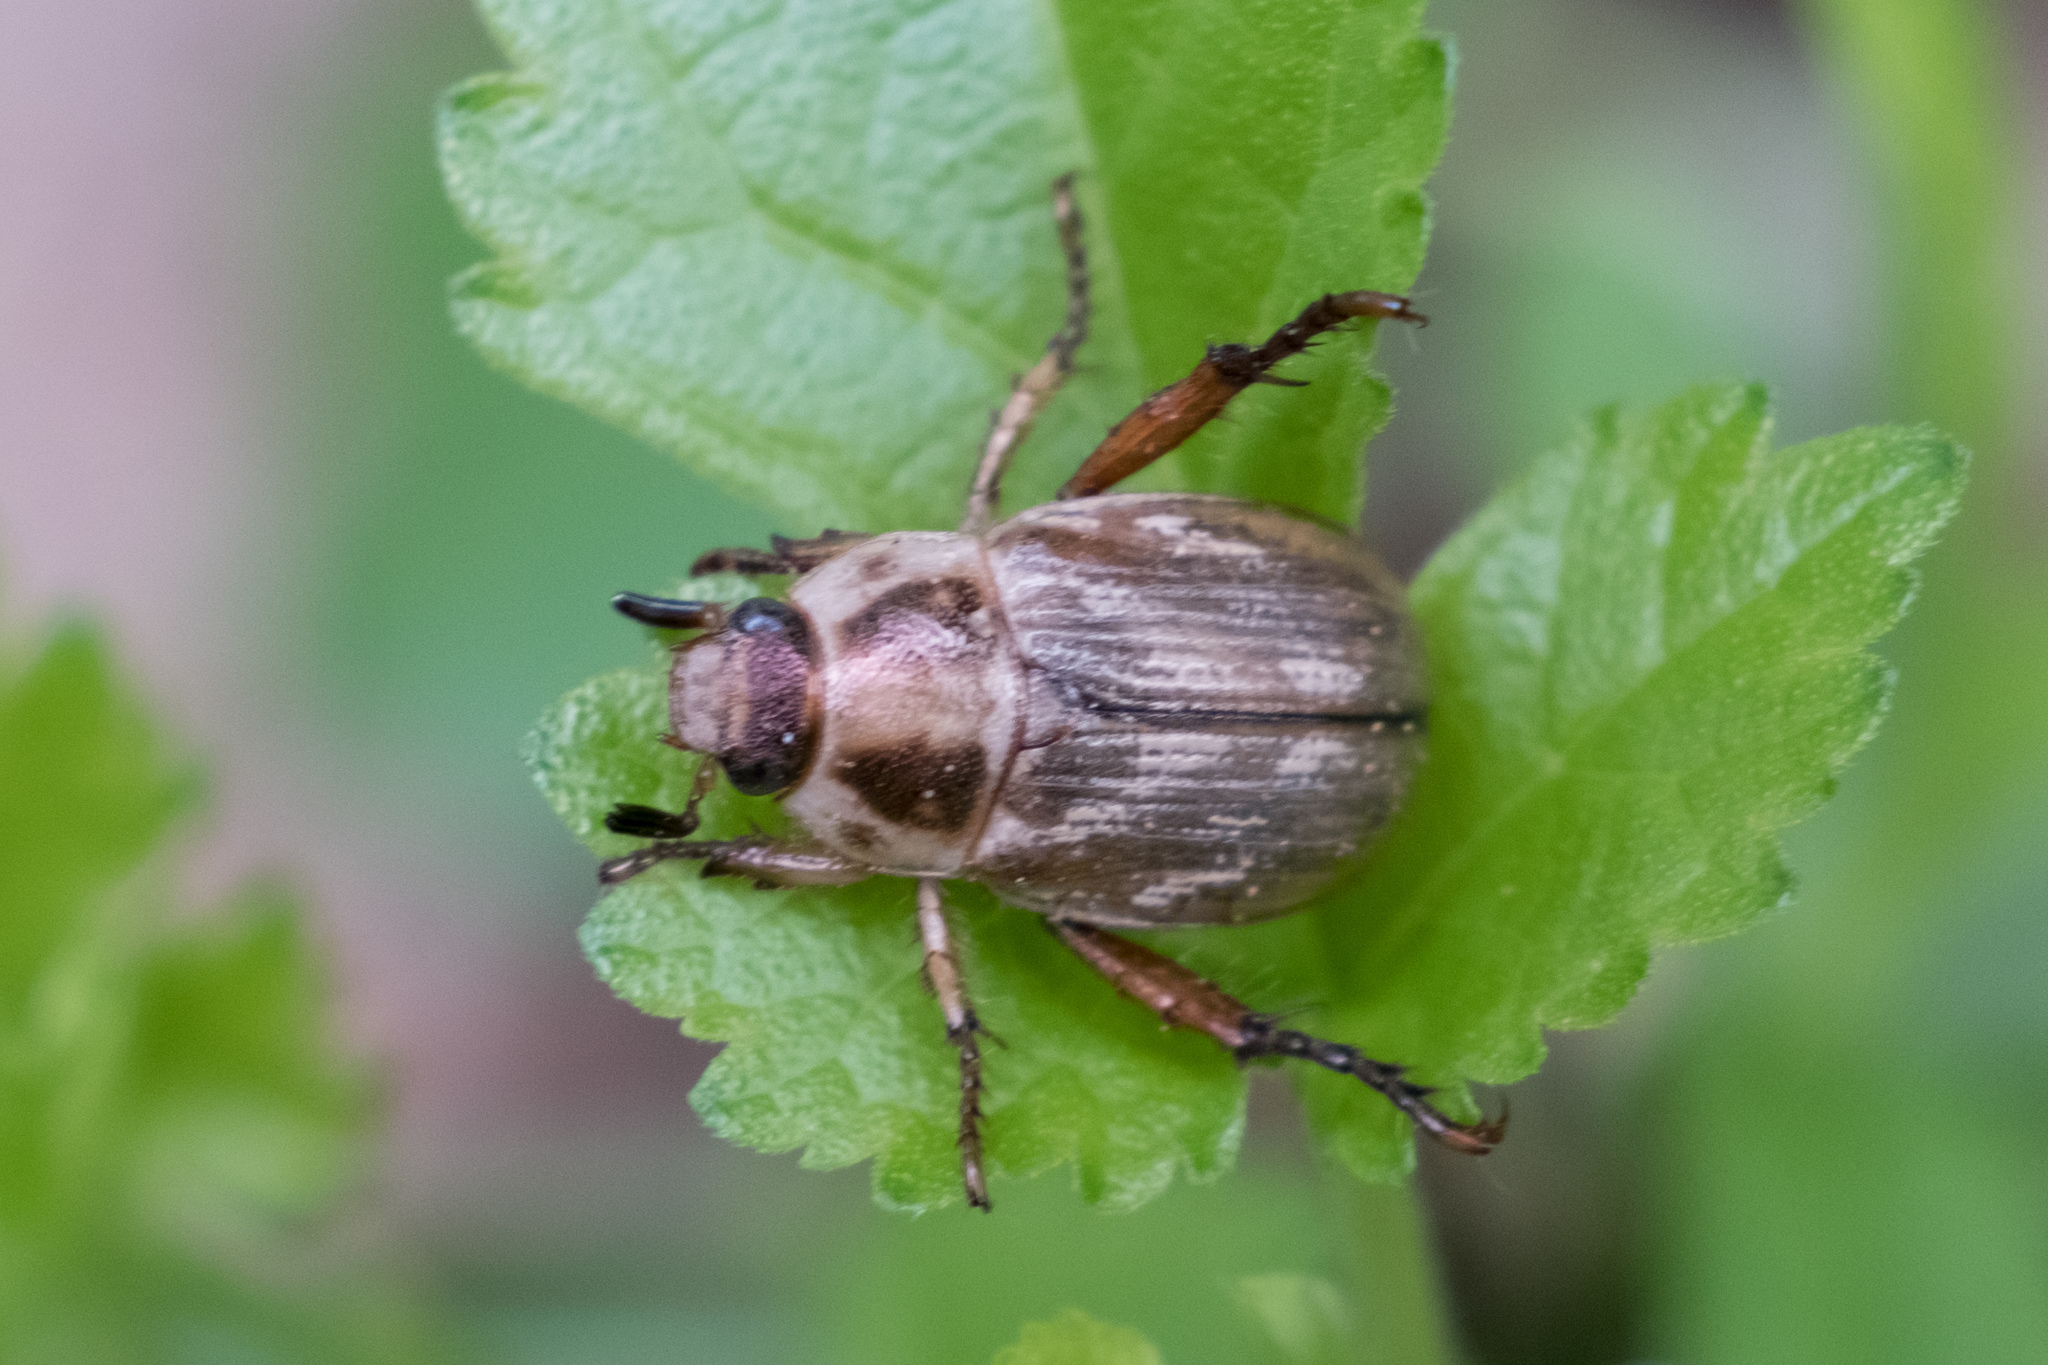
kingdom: Animalia
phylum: Arthropoda
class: Insecta
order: Coleoptera
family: Scarabaeidae
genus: Exomala
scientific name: Exomala orientalis
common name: Oriental beetle
